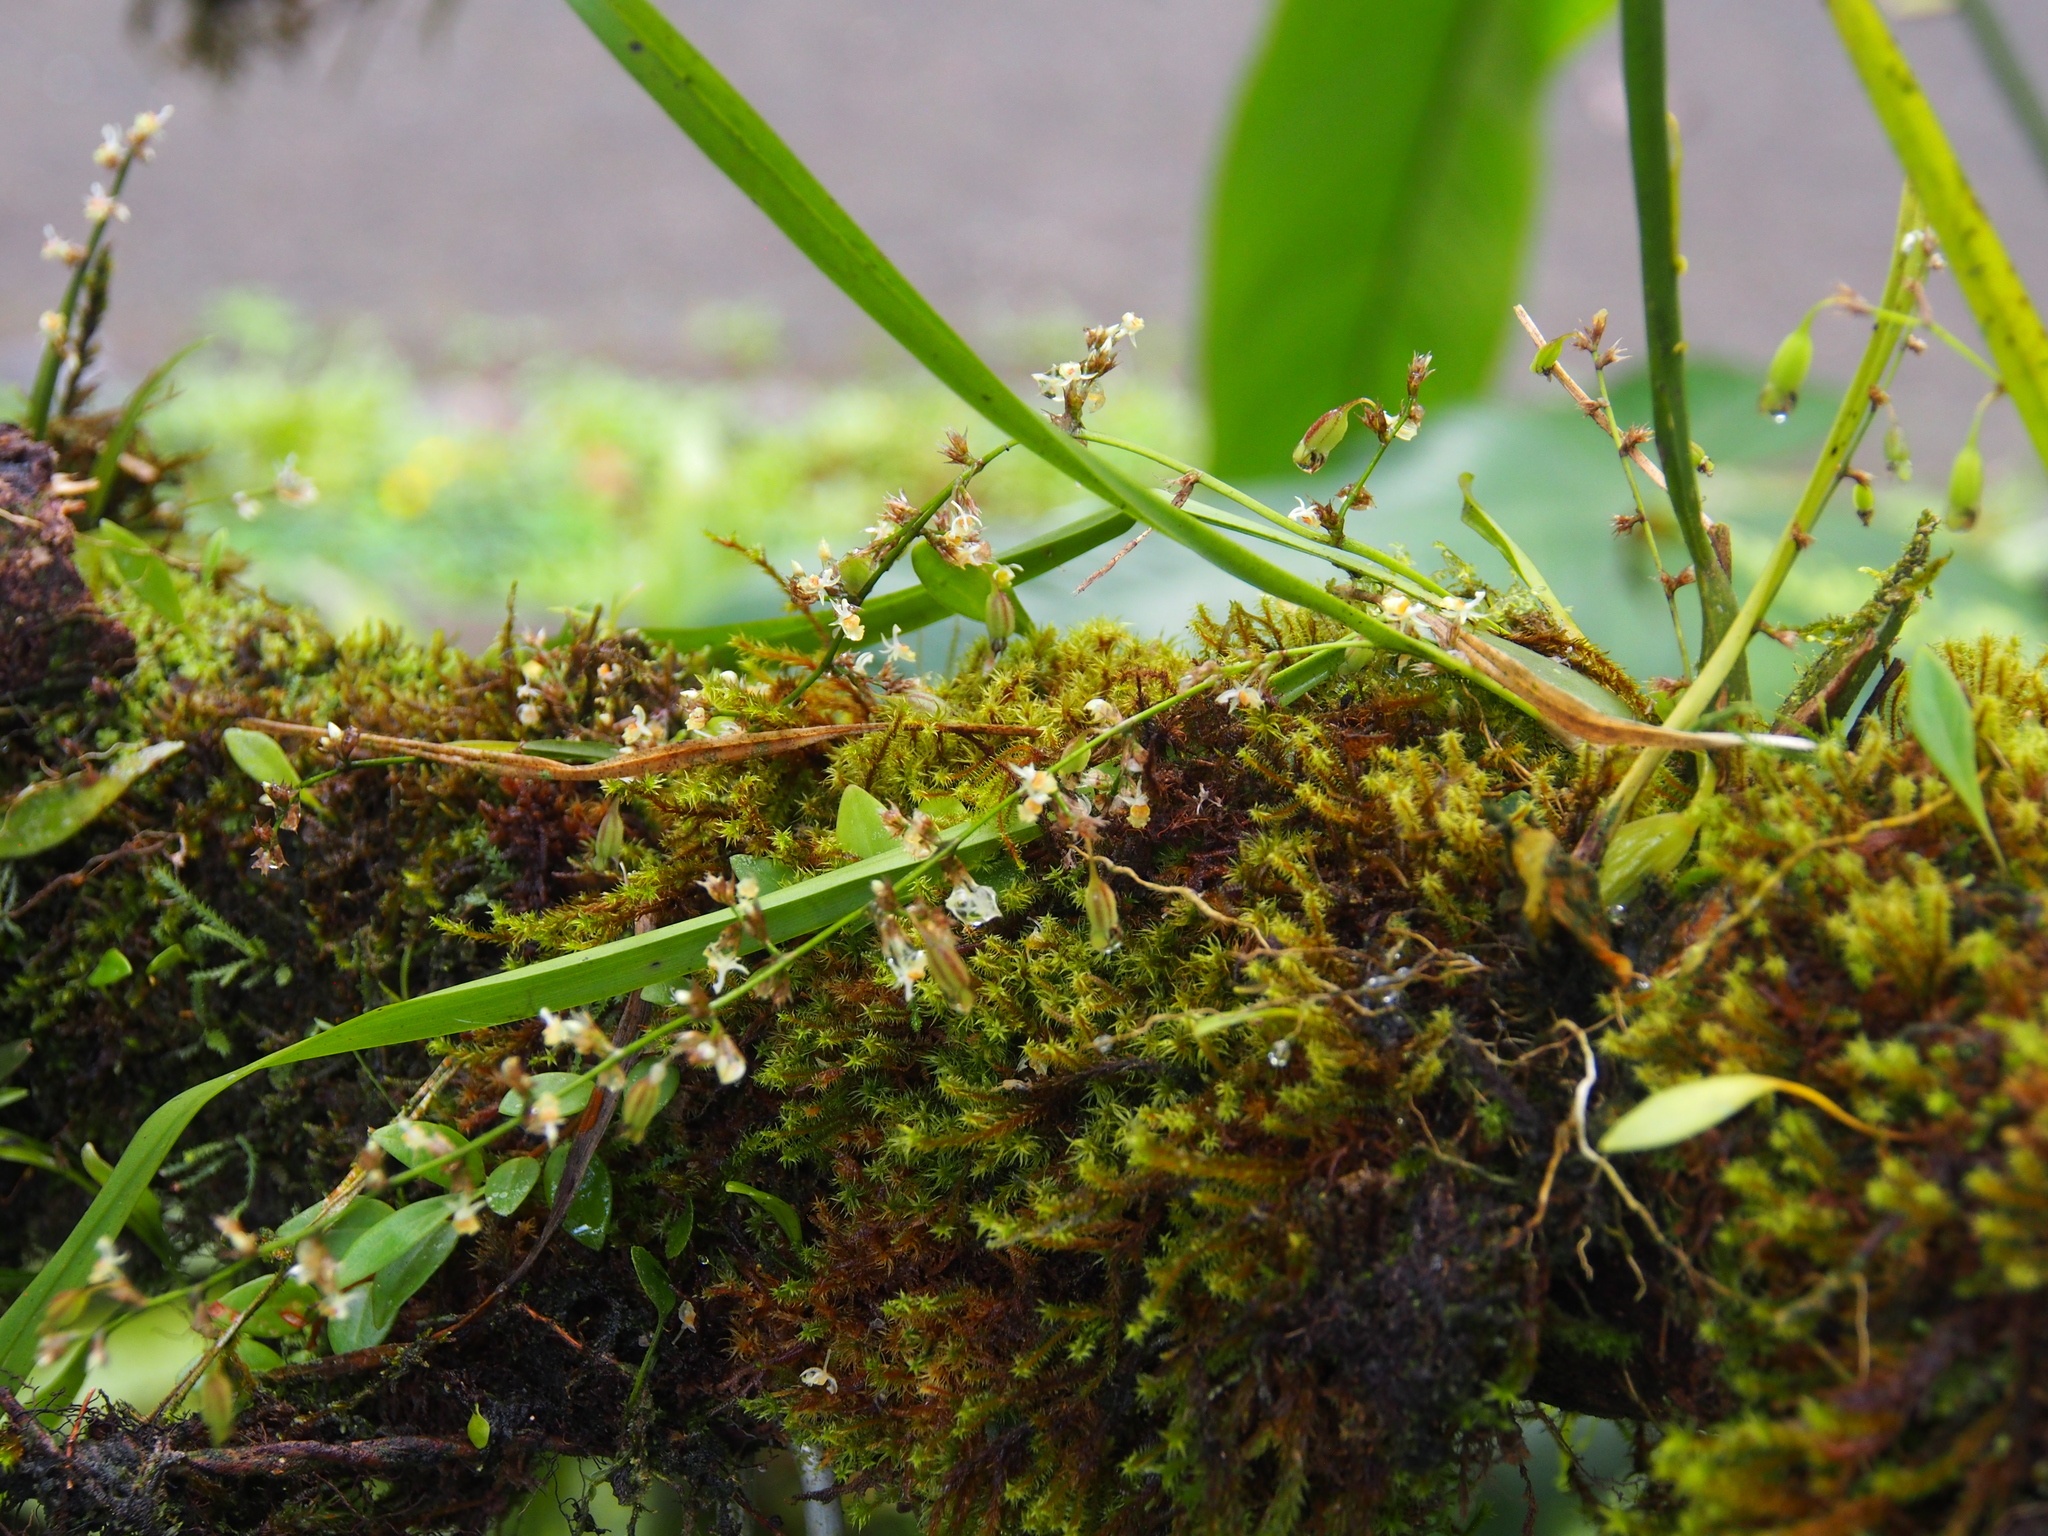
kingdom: Plantae
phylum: Tracheophyta
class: Liliopsida
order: Asparagales
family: Orchidaceae
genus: Oncidium
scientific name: Oncidium integrilabre
